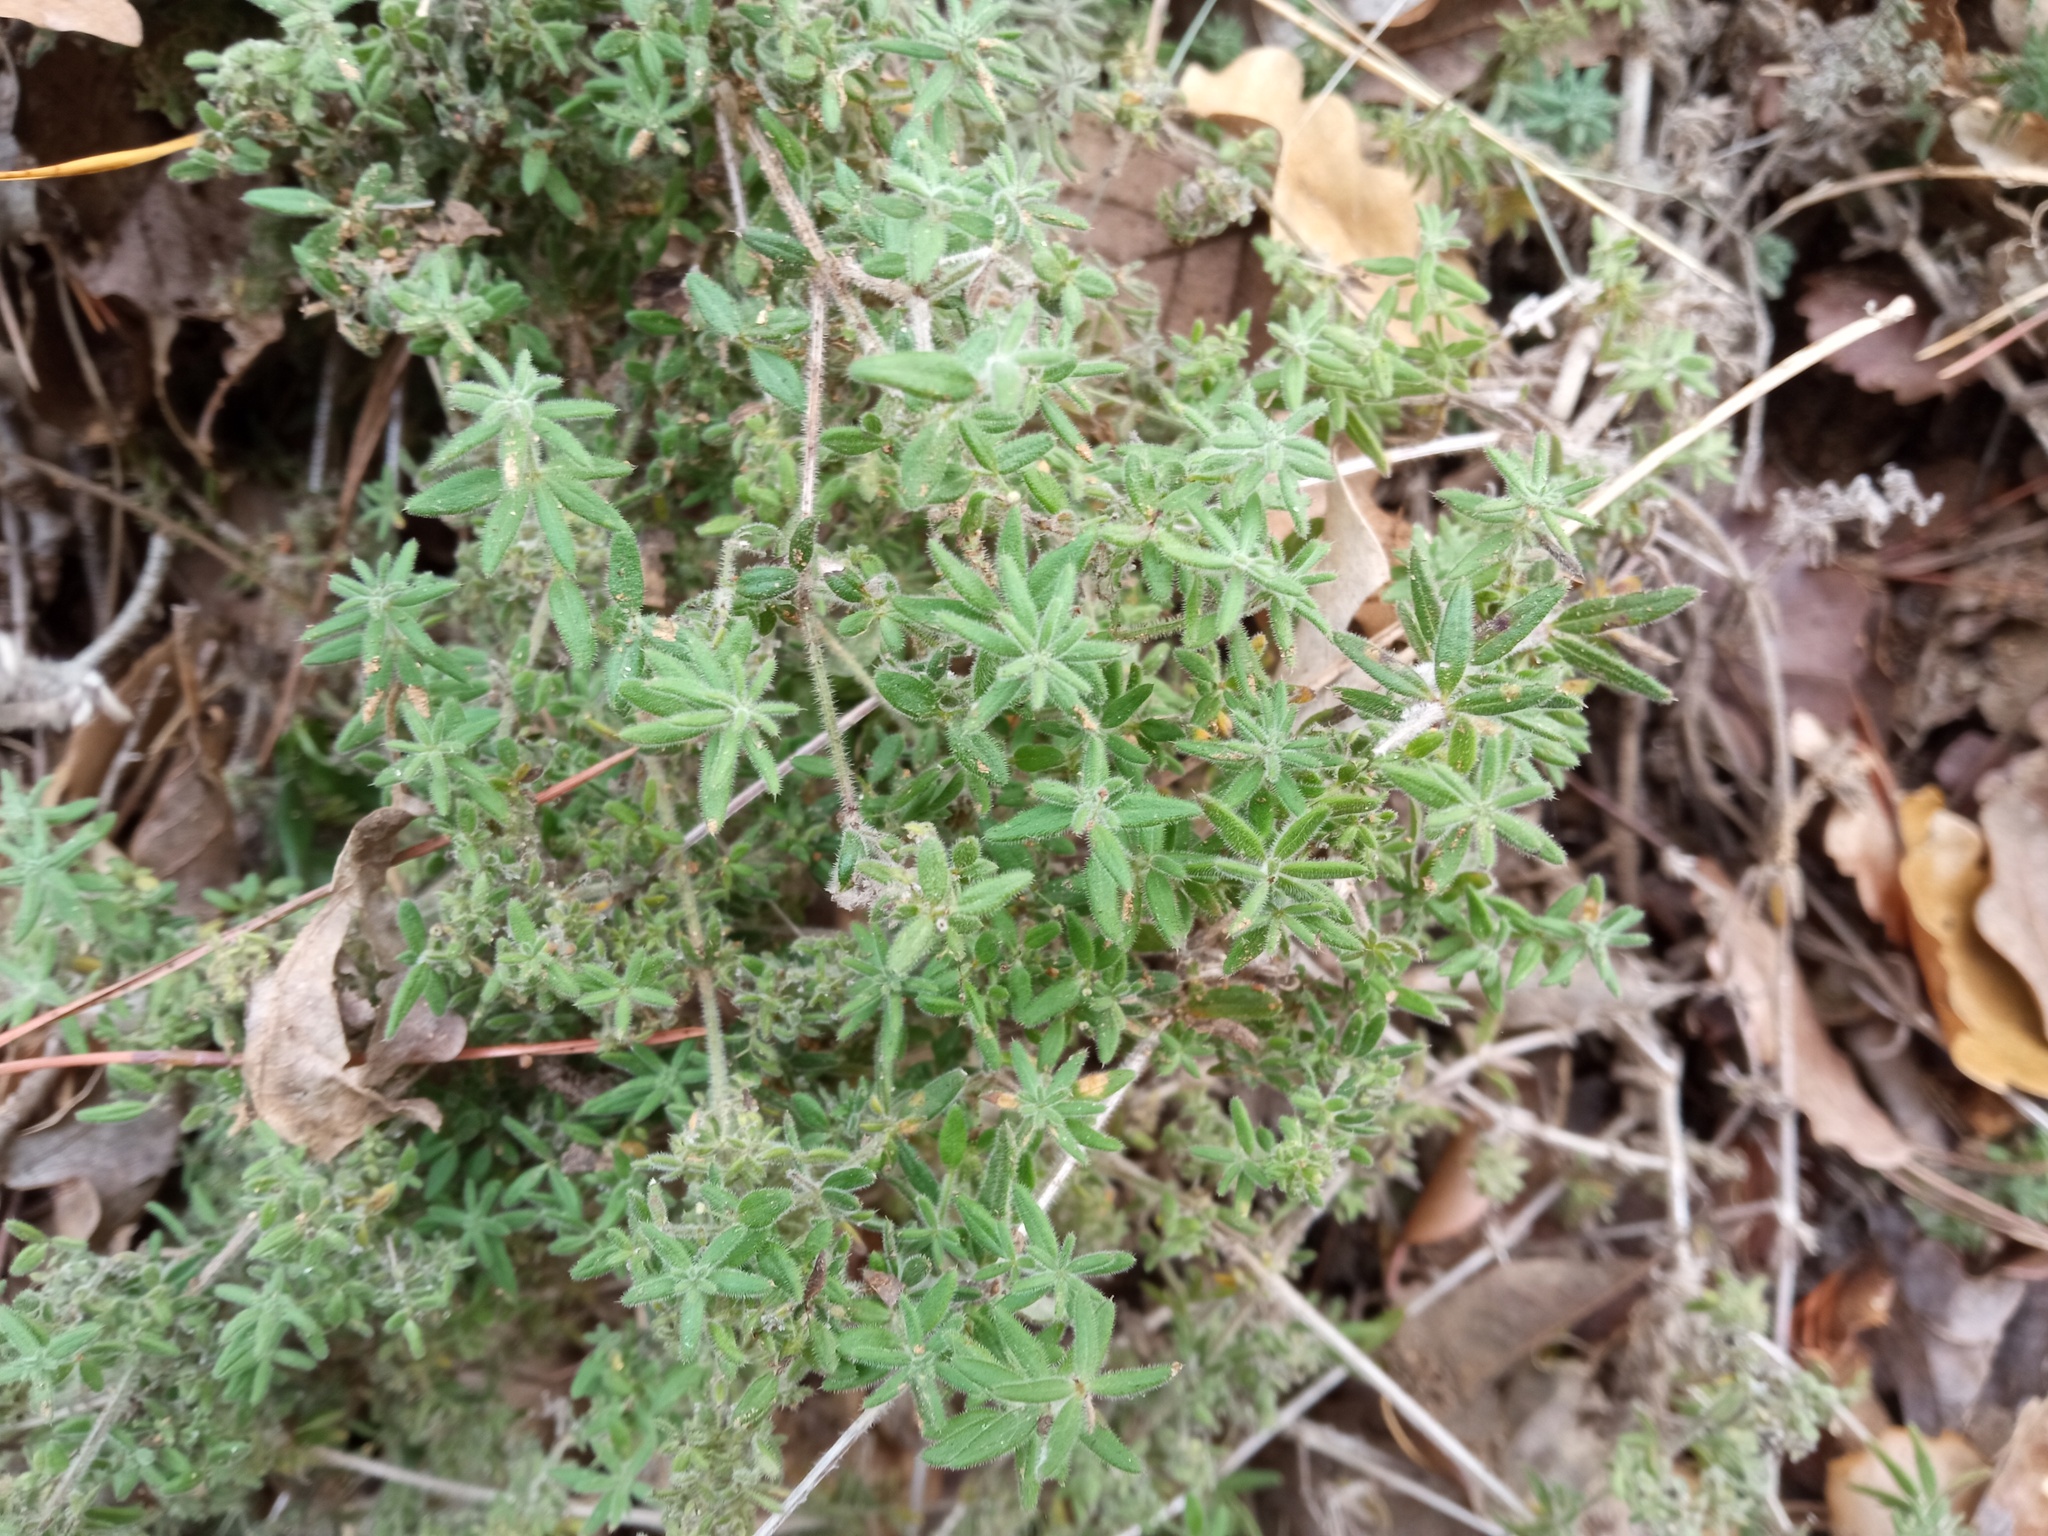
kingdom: Plantae
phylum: Tracheophyta
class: Magnoliopsida
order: Gentianales
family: Rubiaceae
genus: Galium
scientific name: Galium maritimum
